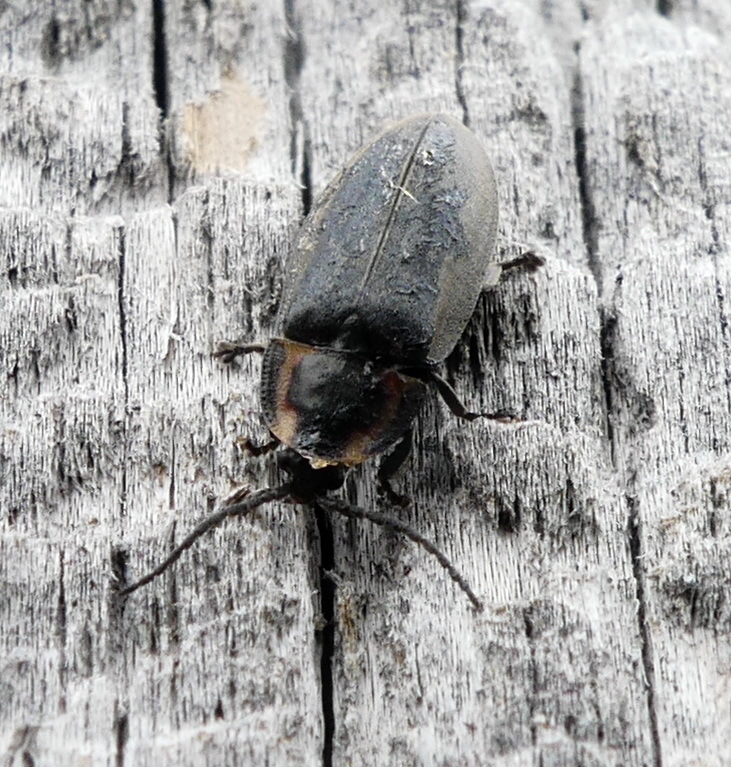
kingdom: Animalia
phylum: Arthropoda
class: Insecta
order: Coleoptera
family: Lampyridae
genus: Photinus
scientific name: Photinus corrusca
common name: Winter firefly
